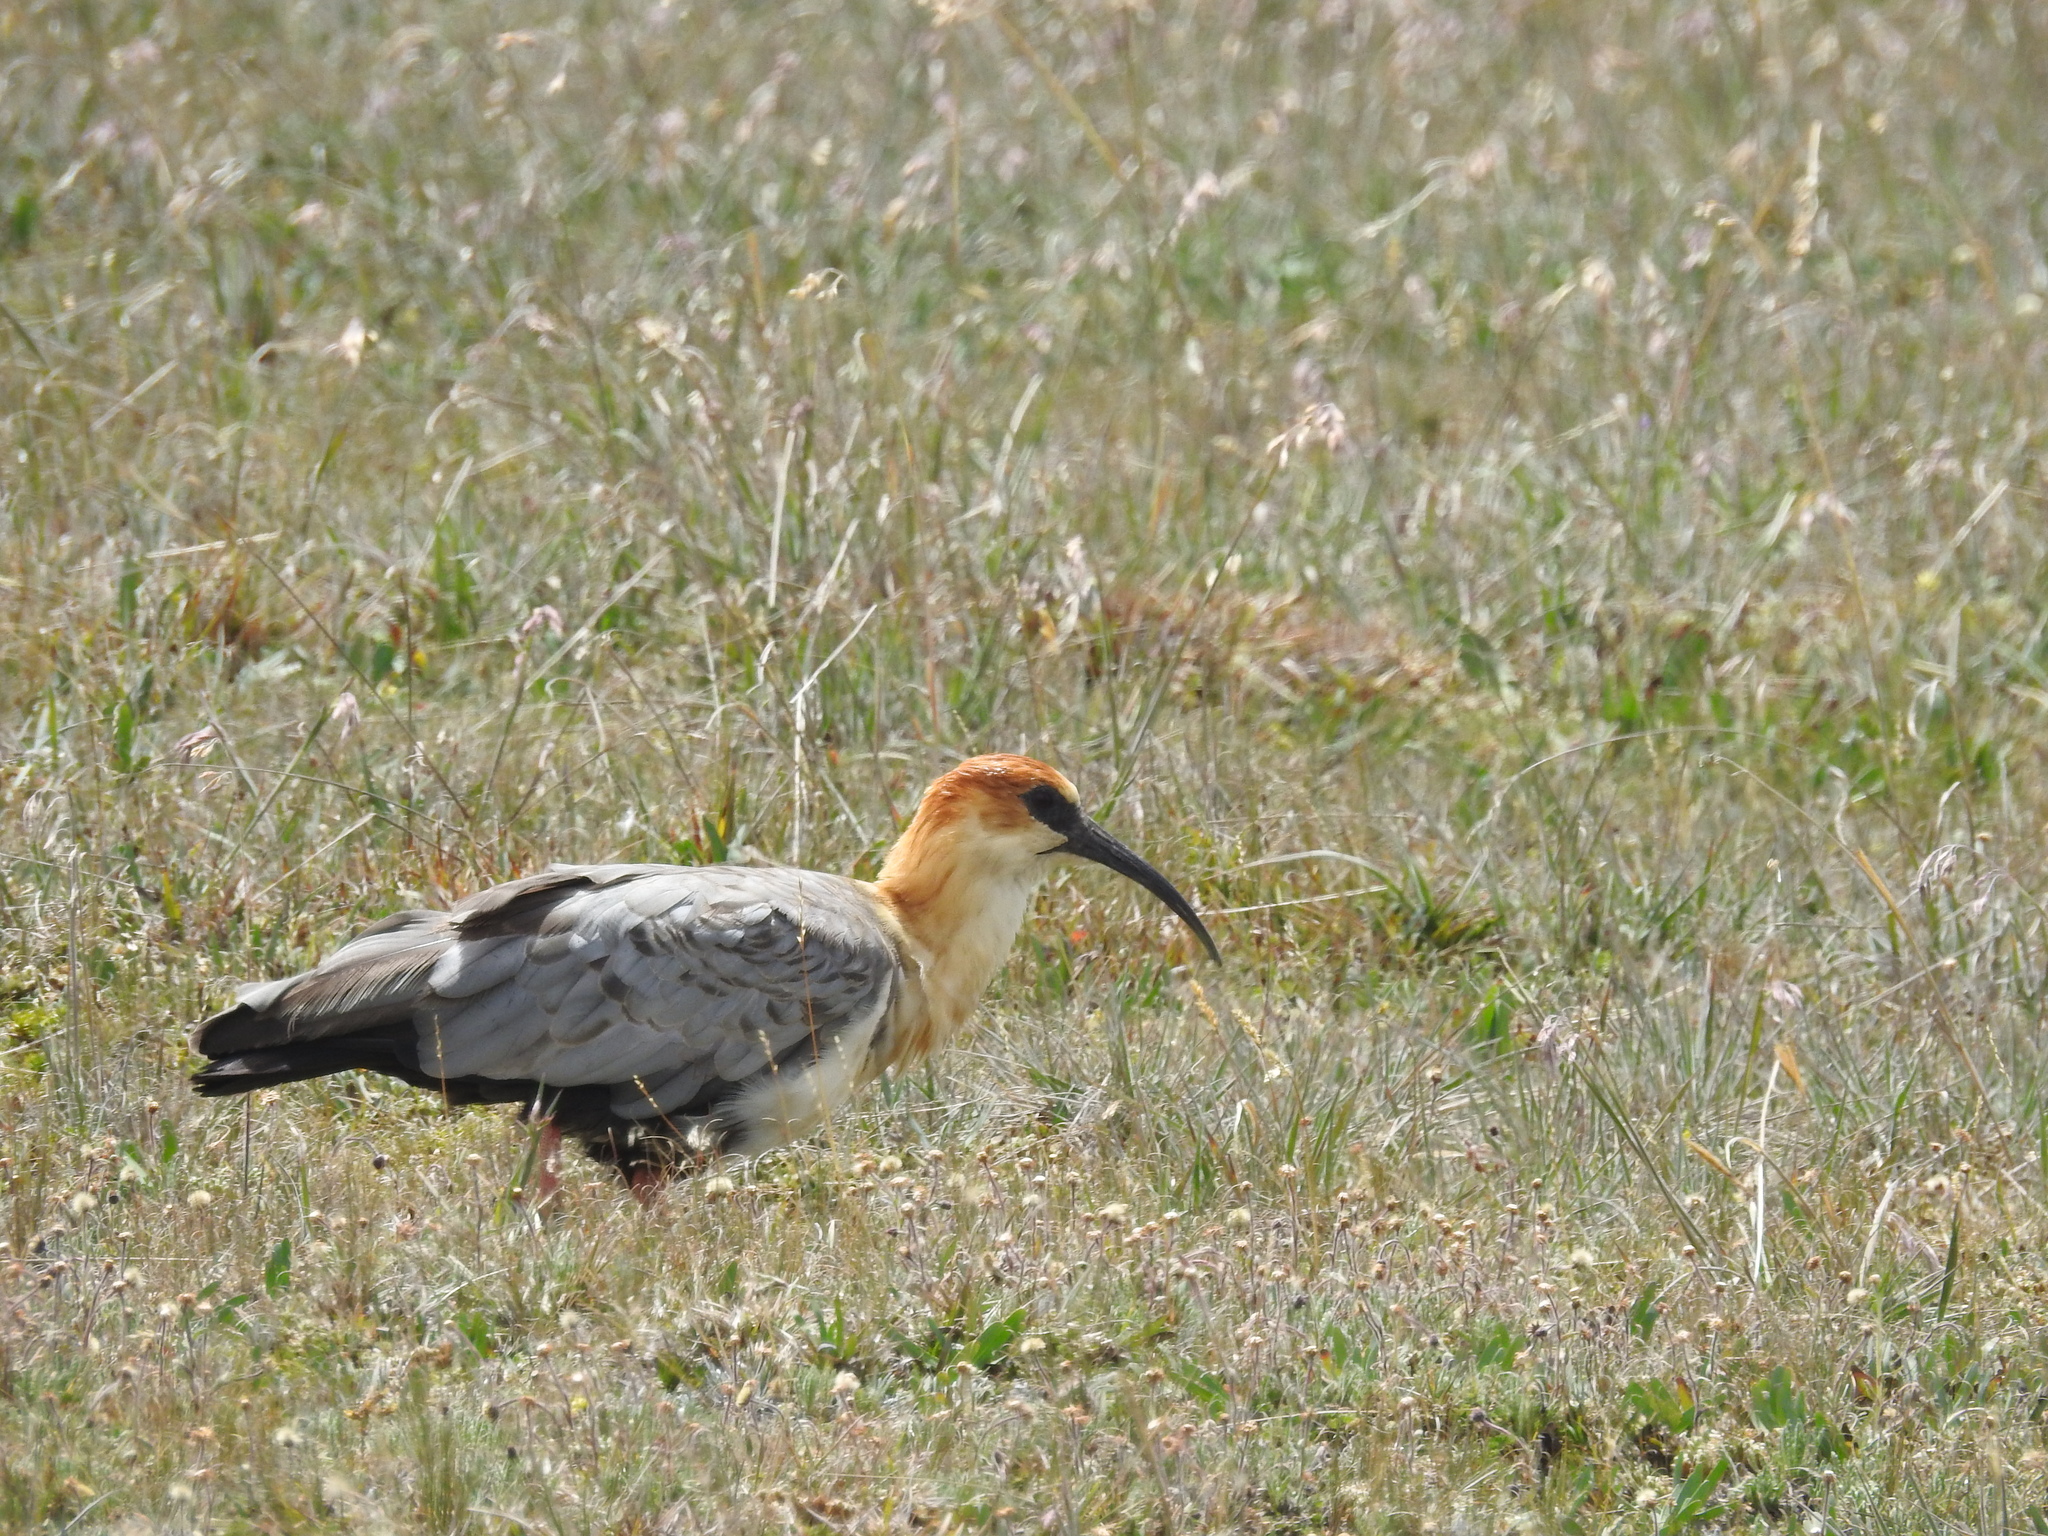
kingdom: Animalia
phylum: Chordata
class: Aves
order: Pelecaniformes
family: Threskiornithidae
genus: Theristicus
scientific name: Theristicus melanopis
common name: Black-faced ibis
